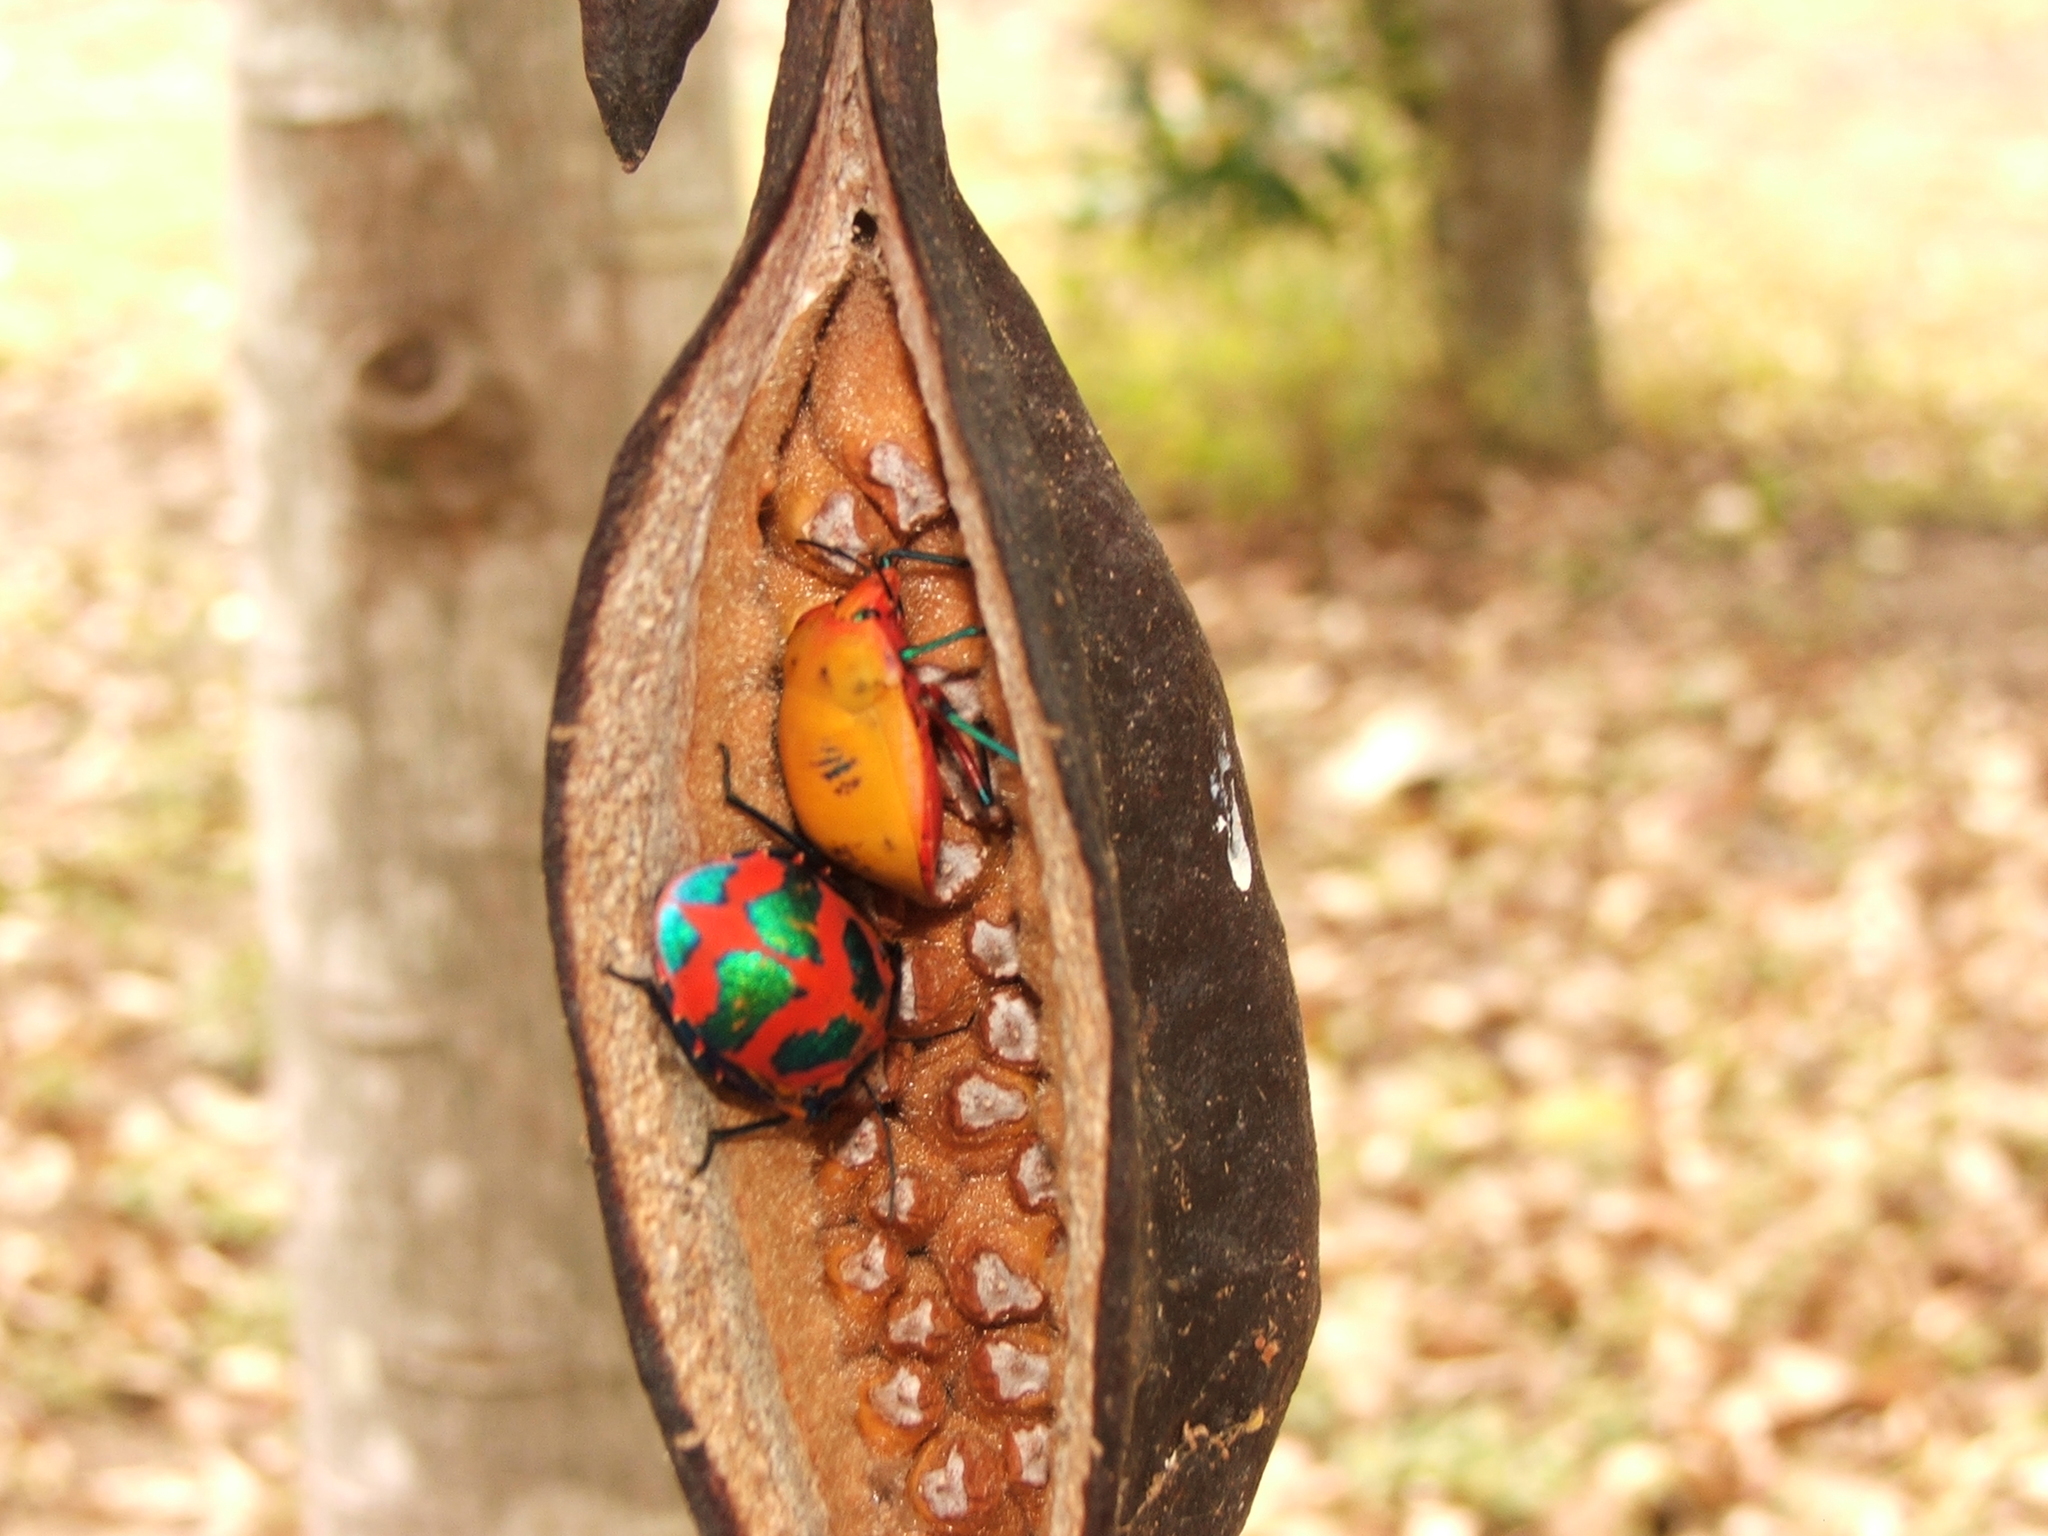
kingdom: Animalia
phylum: Arthropoda
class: Insecta
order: Hemiptera
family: Scutelleridae
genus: Tectocoris
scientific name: Tectocoris diophthalmus
